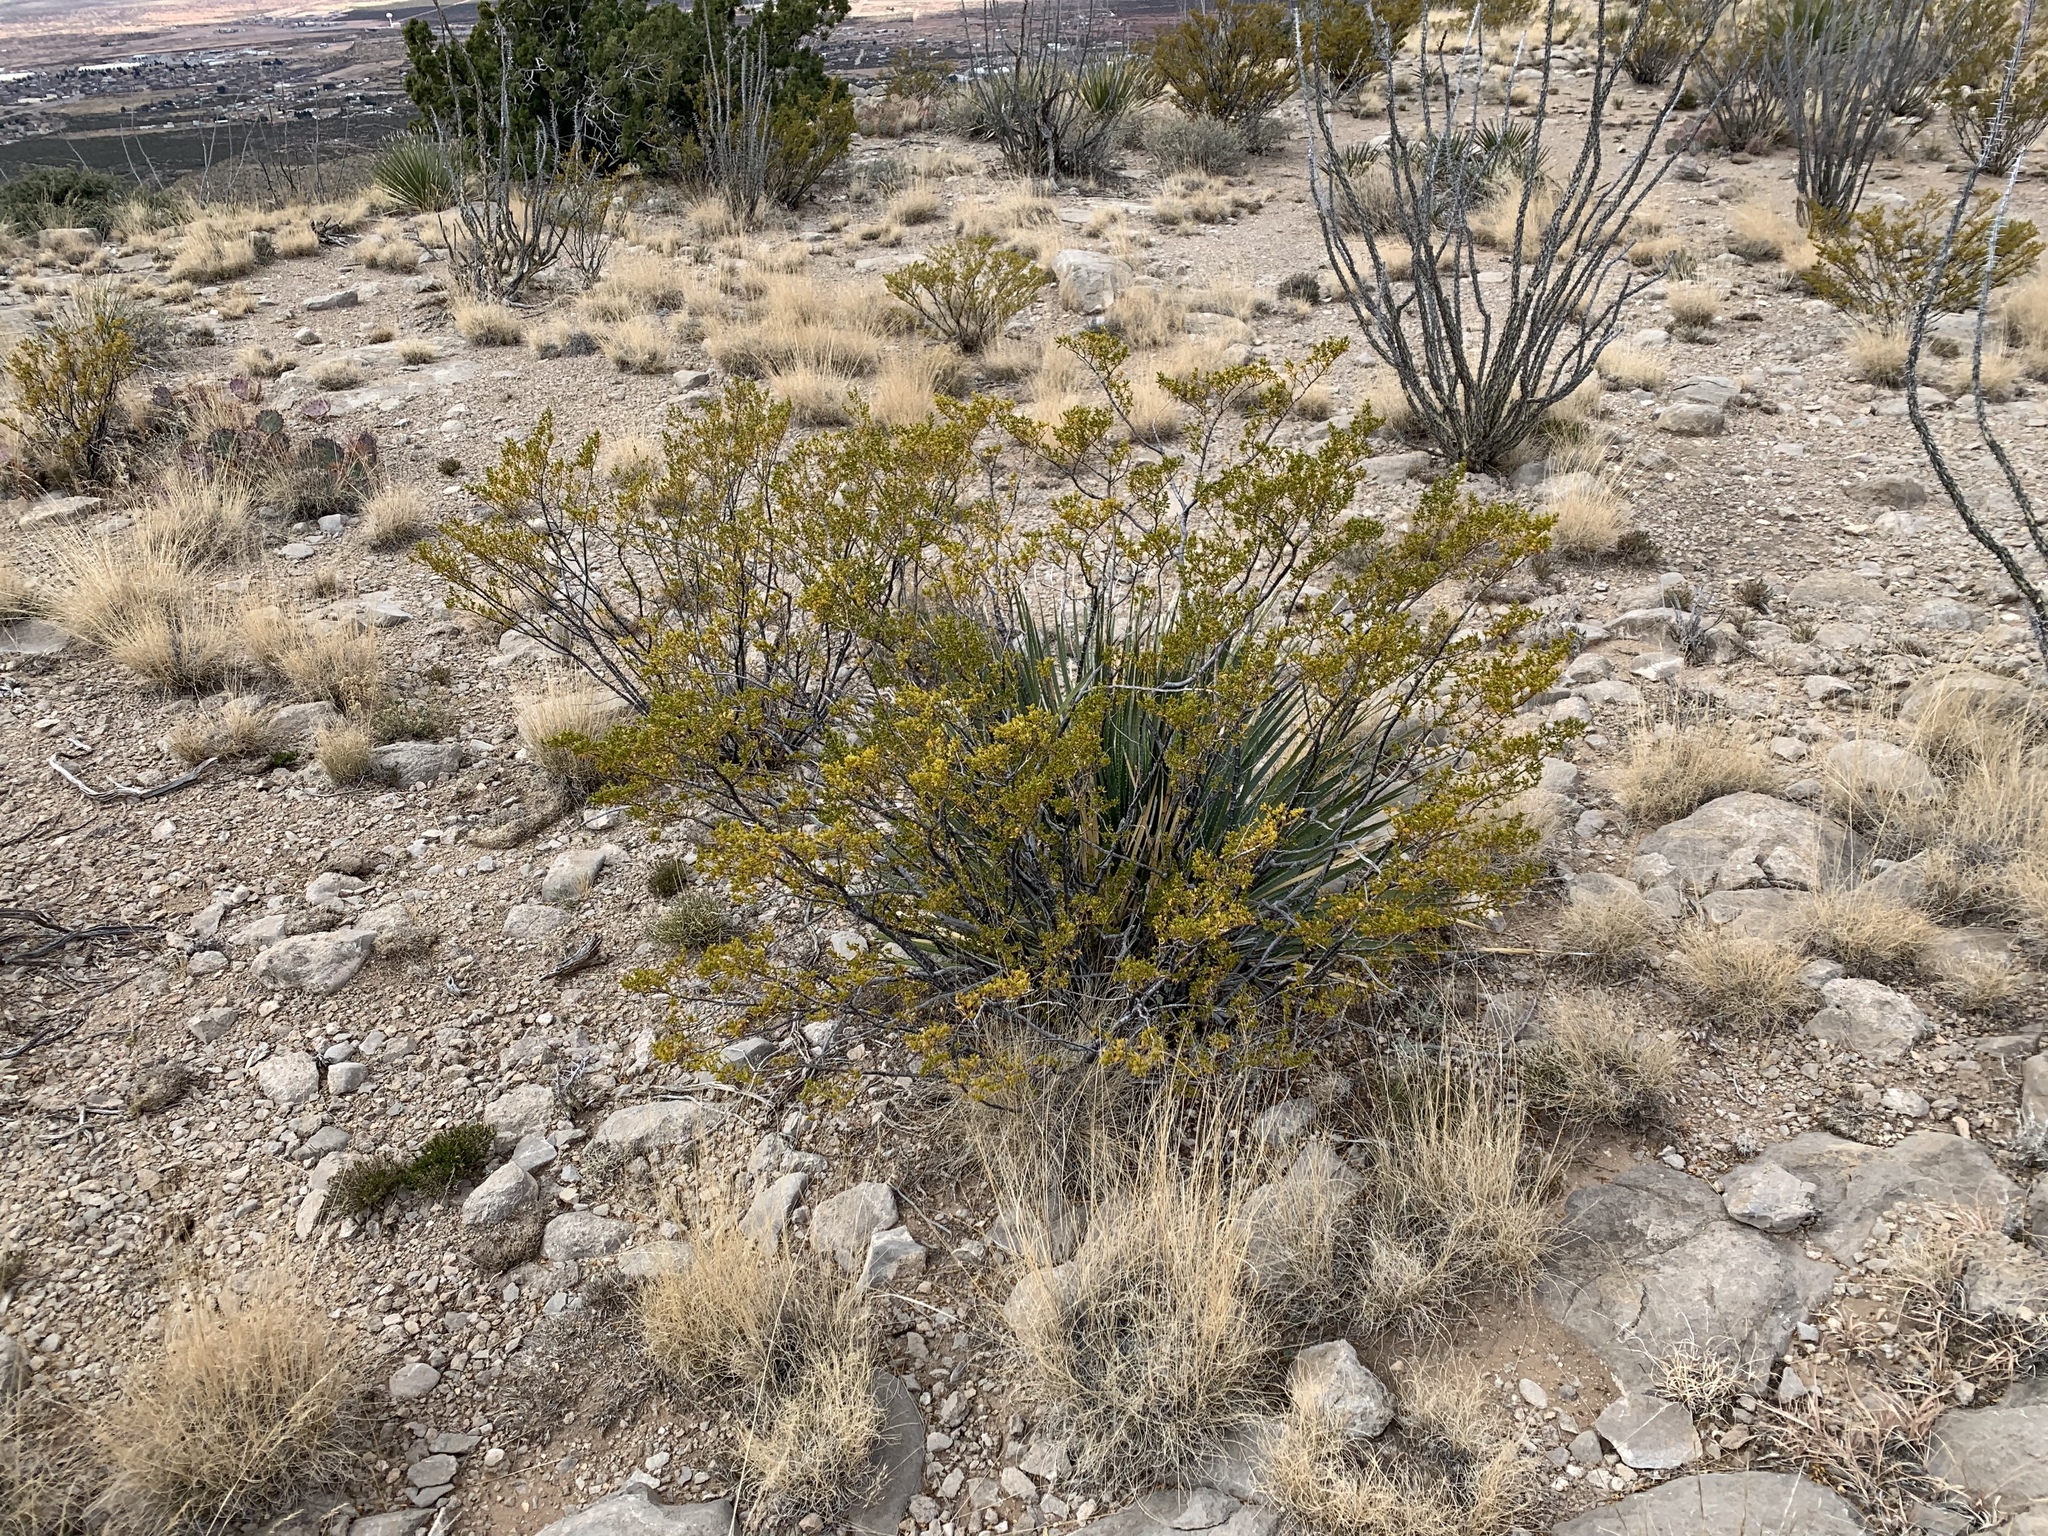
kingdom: Plantae
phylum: Tracheophyta
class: Magnoliopsida
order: Zygophyllales
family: Zygophyllaceae
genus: Larrea
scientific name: Larrea tridentata
